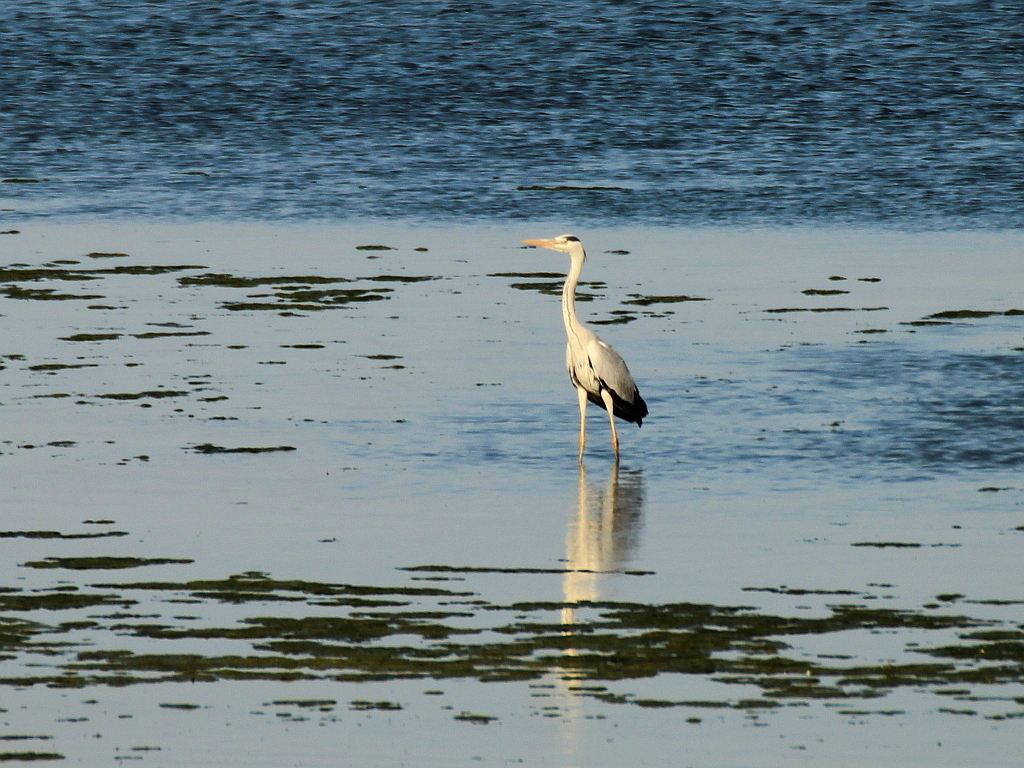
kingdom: Animalia
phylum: Chordata
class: Aves
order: Pelecaniformes
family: Ardeidae
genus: Ardea
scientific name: Ardea cinerea
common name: Grey heron
